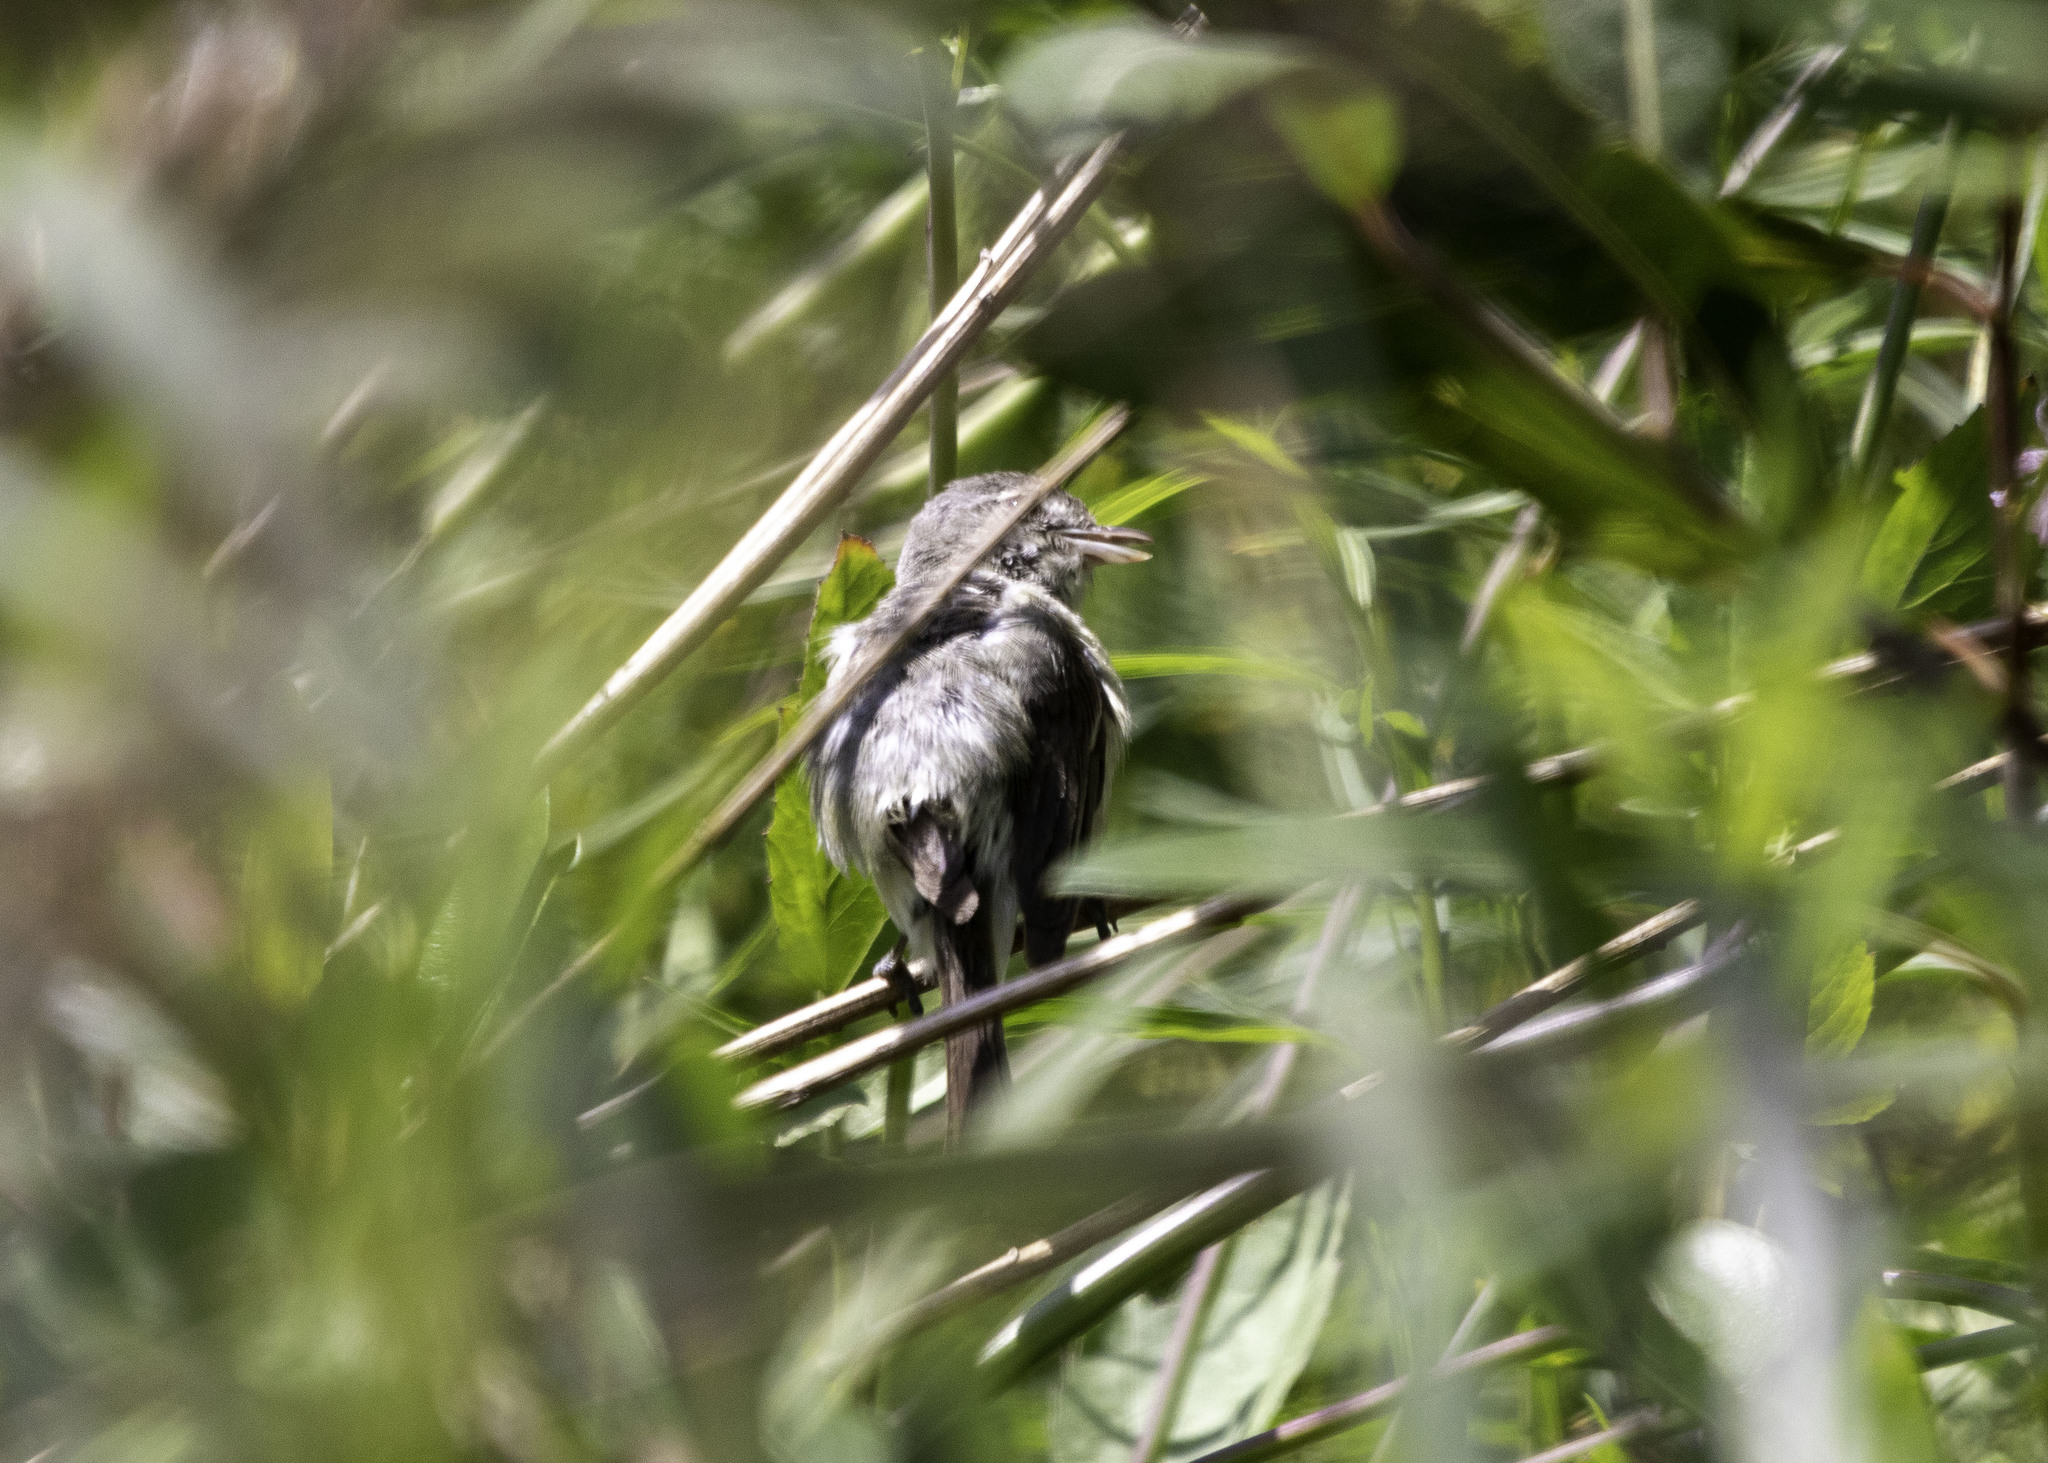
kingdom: Animalia
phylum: Chordata
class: Aves
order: Passeriformes
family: Vireonidae
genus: Vireo
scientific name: Vireo bellii
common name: Bell's vireo
